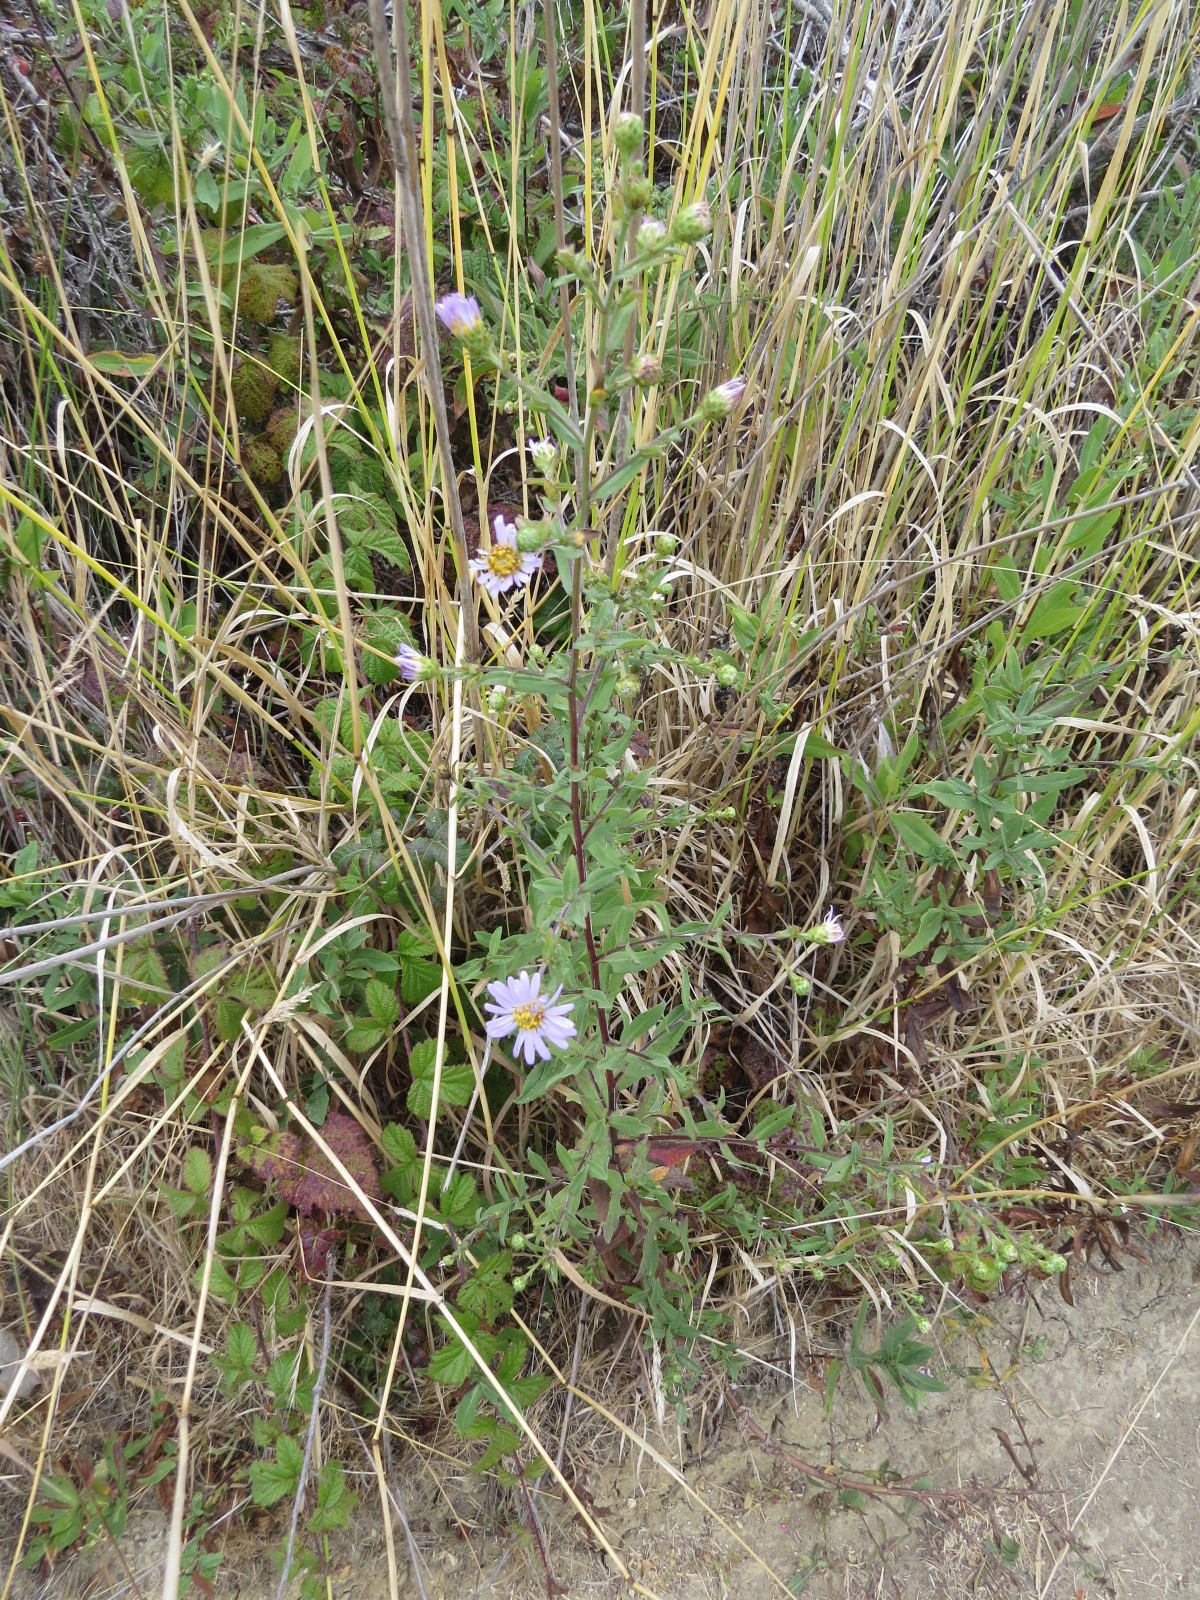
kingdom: Plantae
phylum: Tracheophyta
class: Magnoliopsida
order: Asterales
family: Asteraceae
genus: Symphyotrichum
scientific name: Symphyotrichum chilense
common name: Pacific aster
